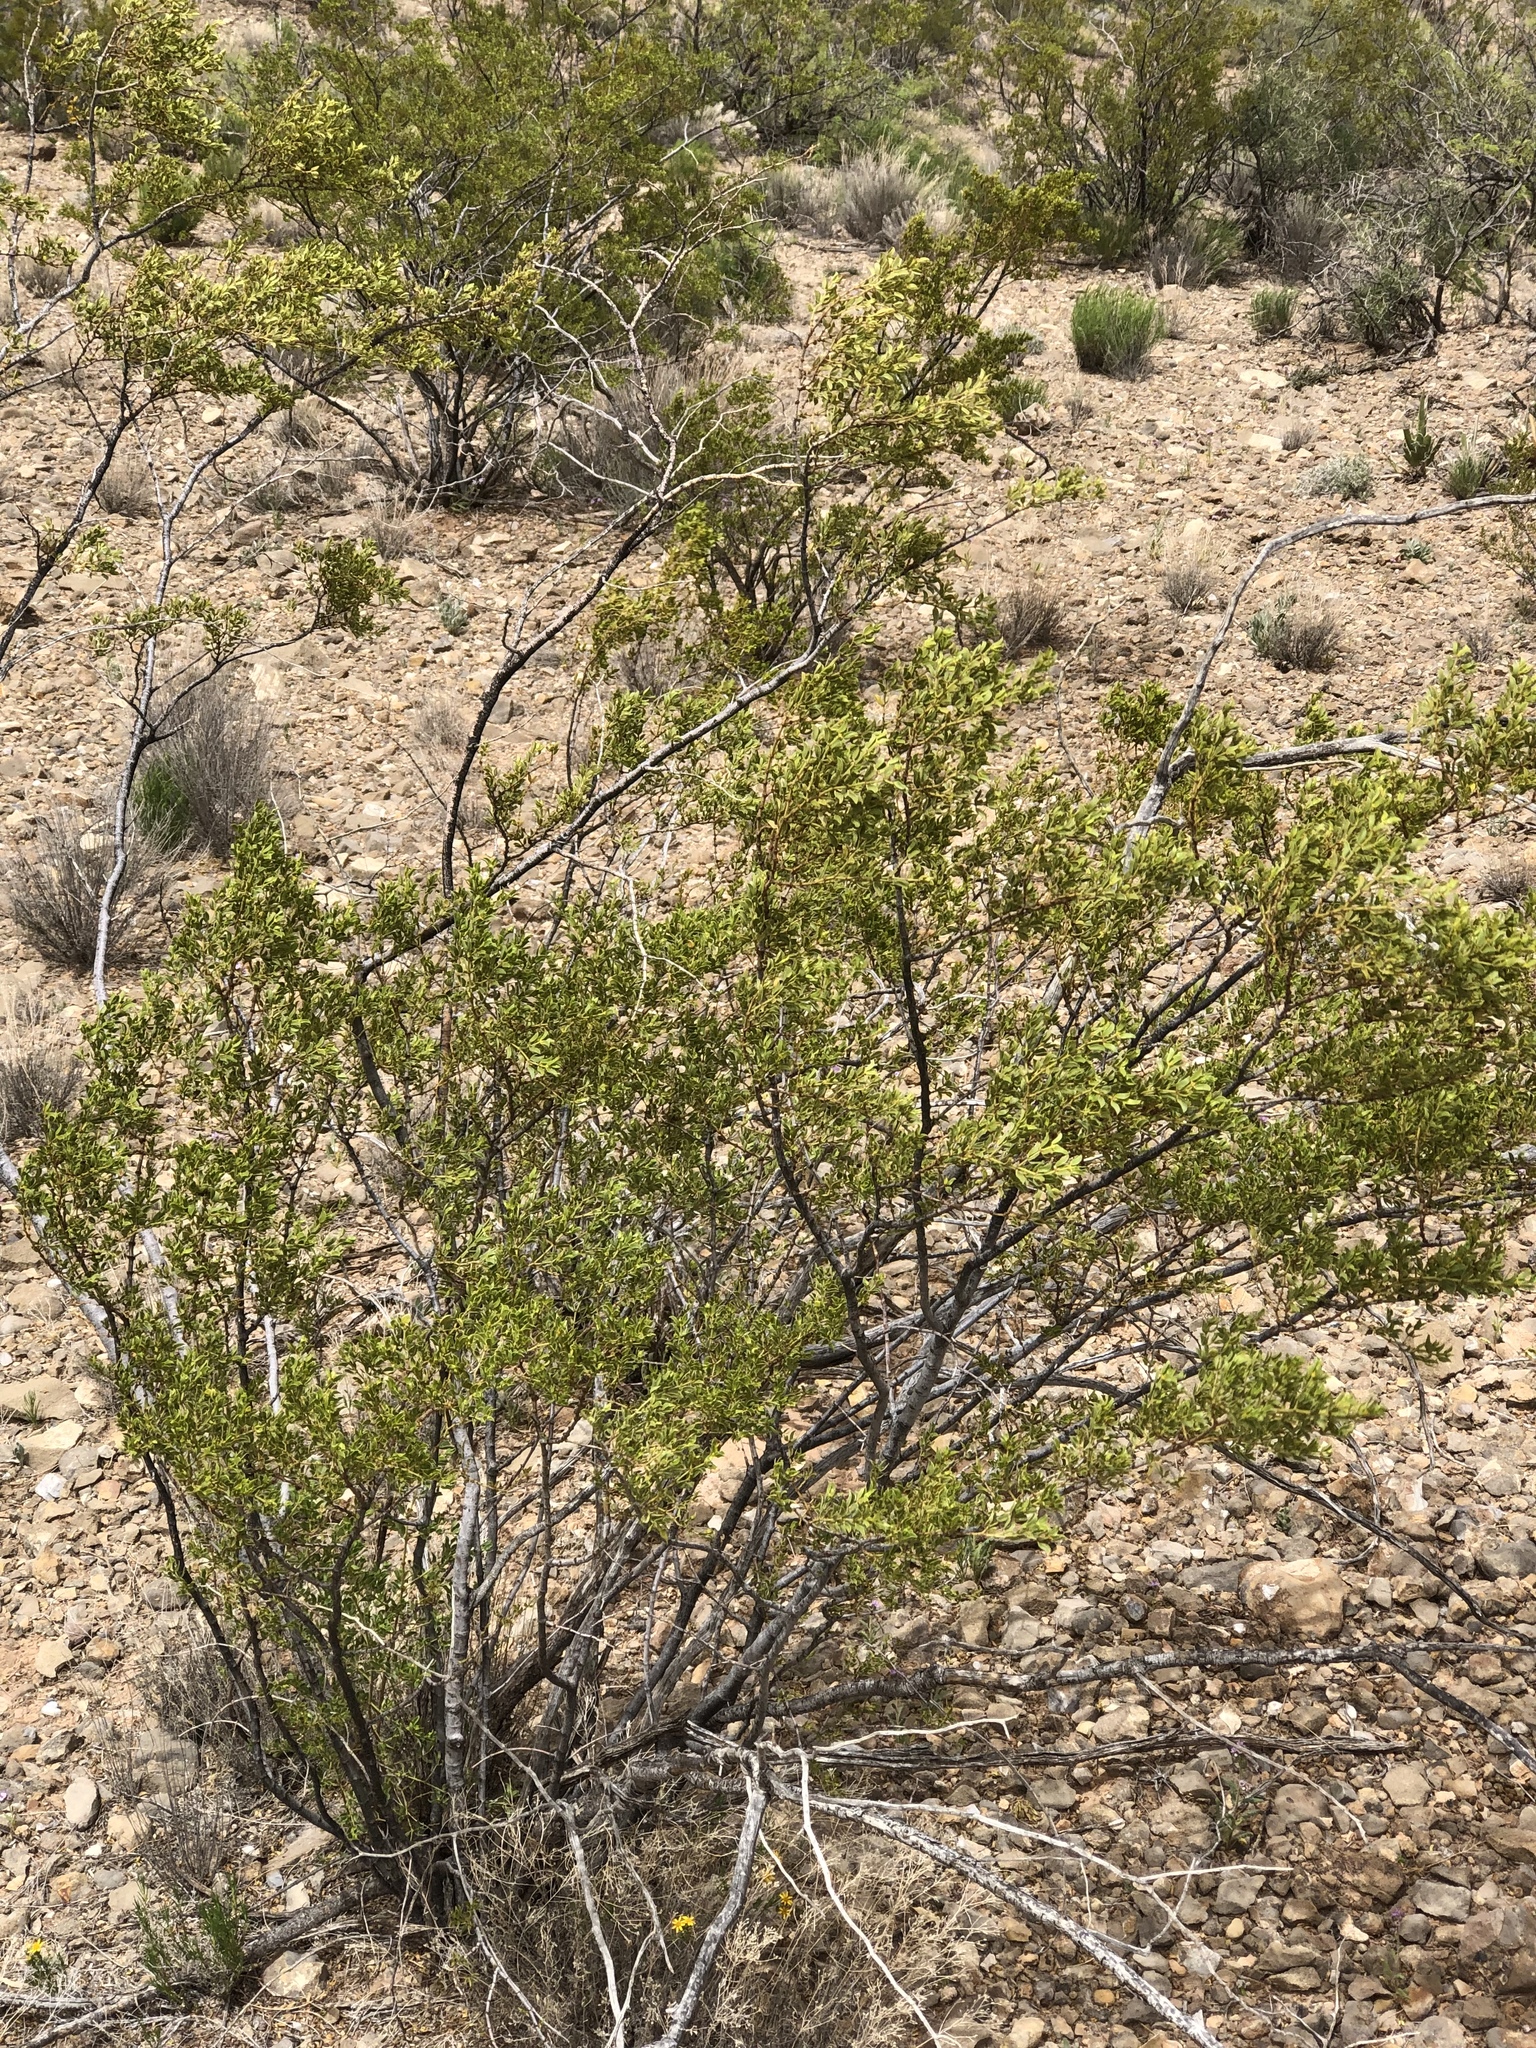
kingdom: Plantae
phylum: Tracheophyta
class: Magnoliopsida
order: Zygophyllales
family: Zygophyllaceae
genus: Larrea
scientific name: Larrea tridentata
